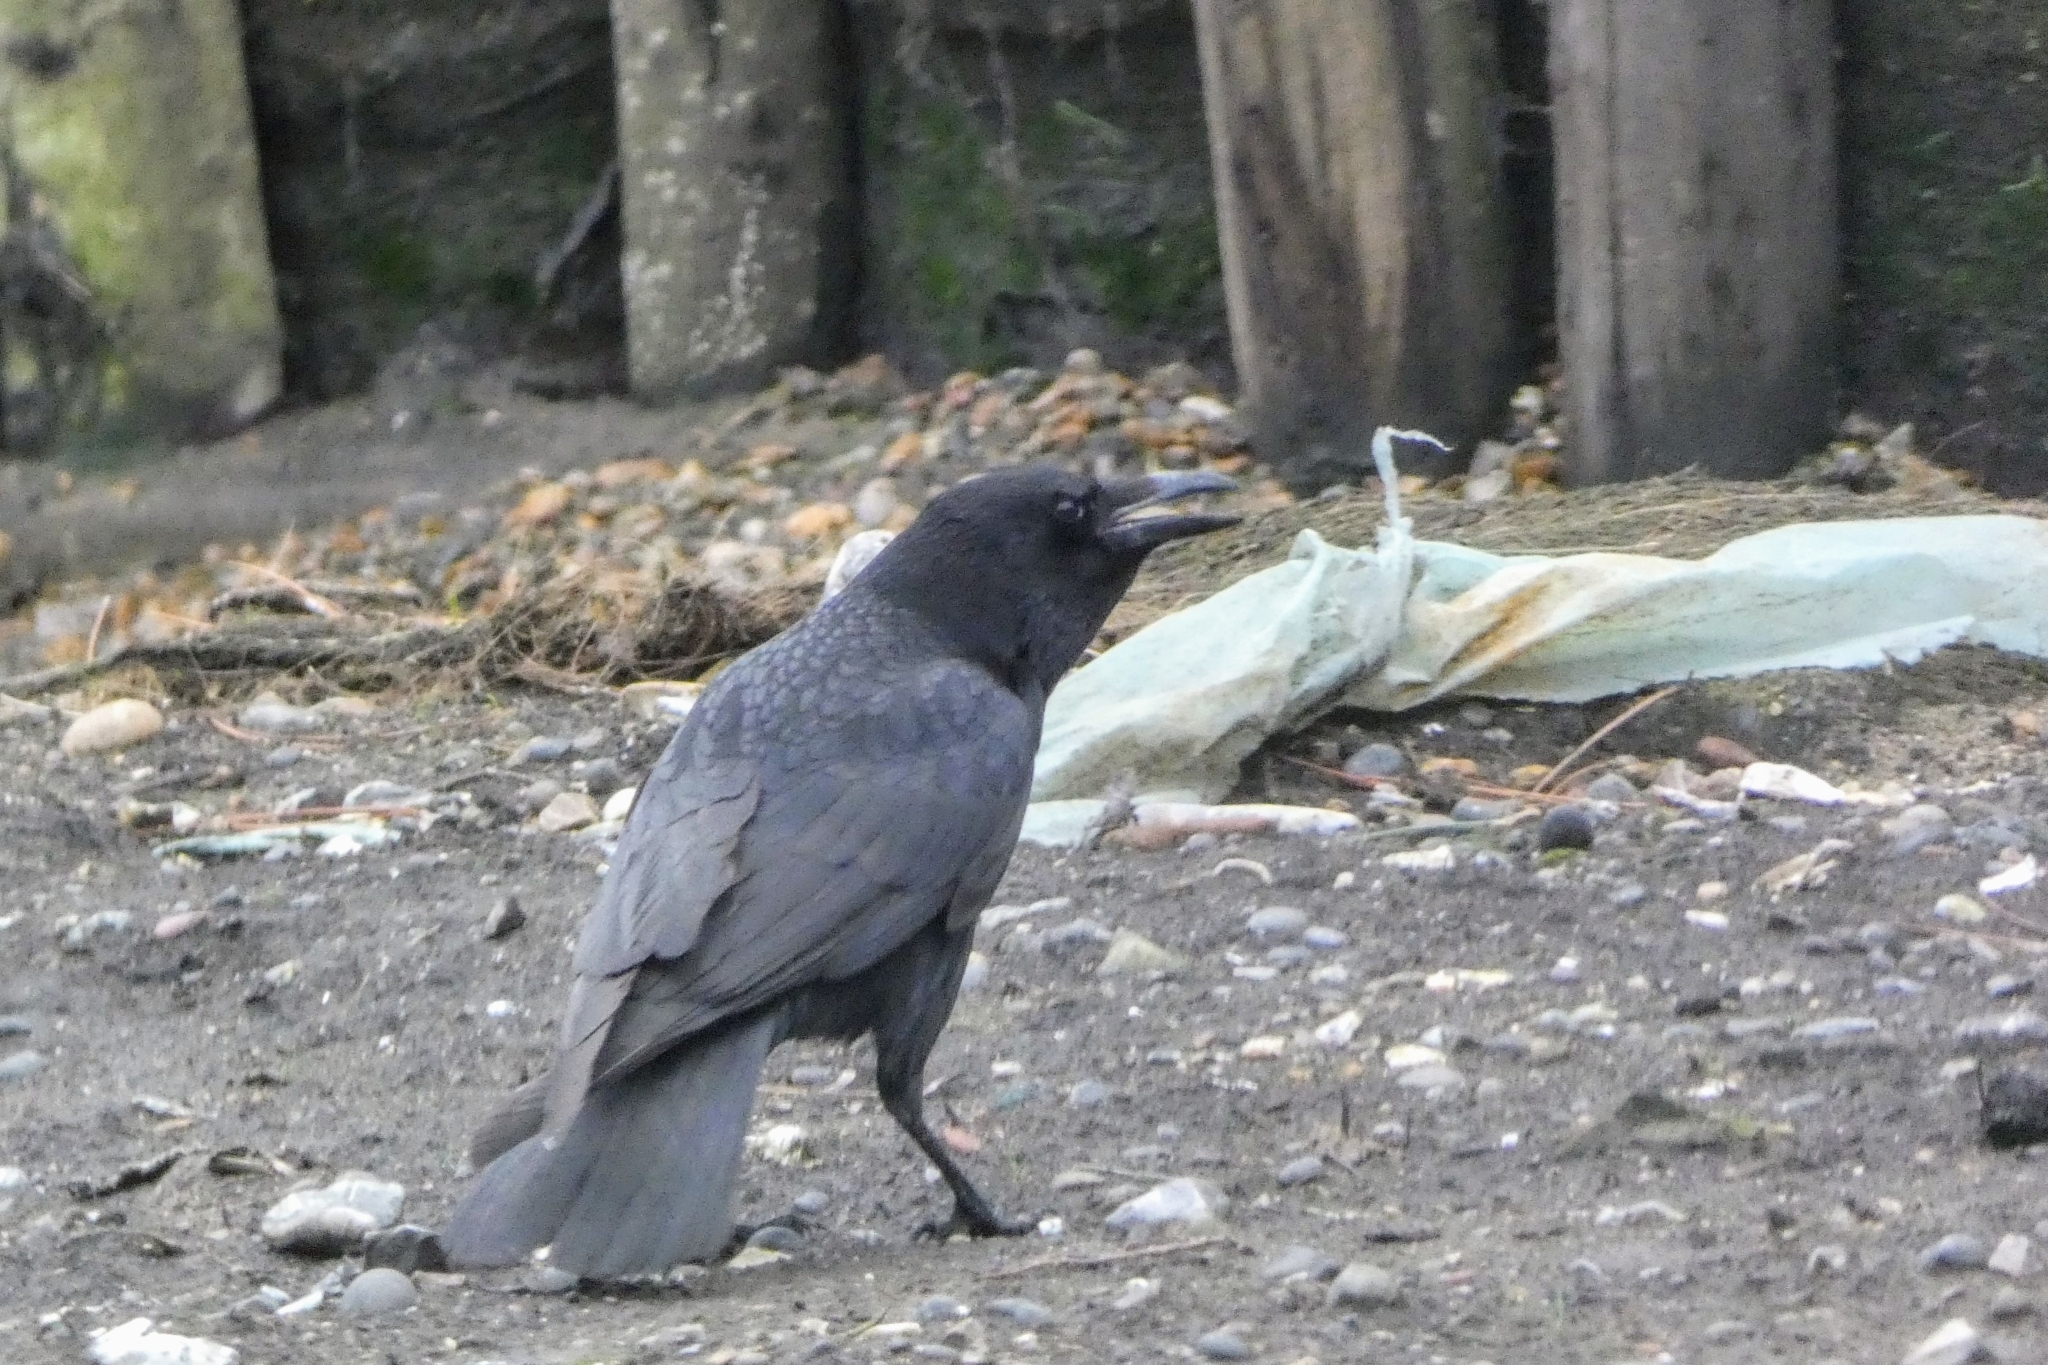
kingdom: Animalia
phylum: Chordata
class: Aves
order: Passeriformes
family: Corvidae
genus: Corvus
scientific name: Corvus corone
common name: Carrion crow
